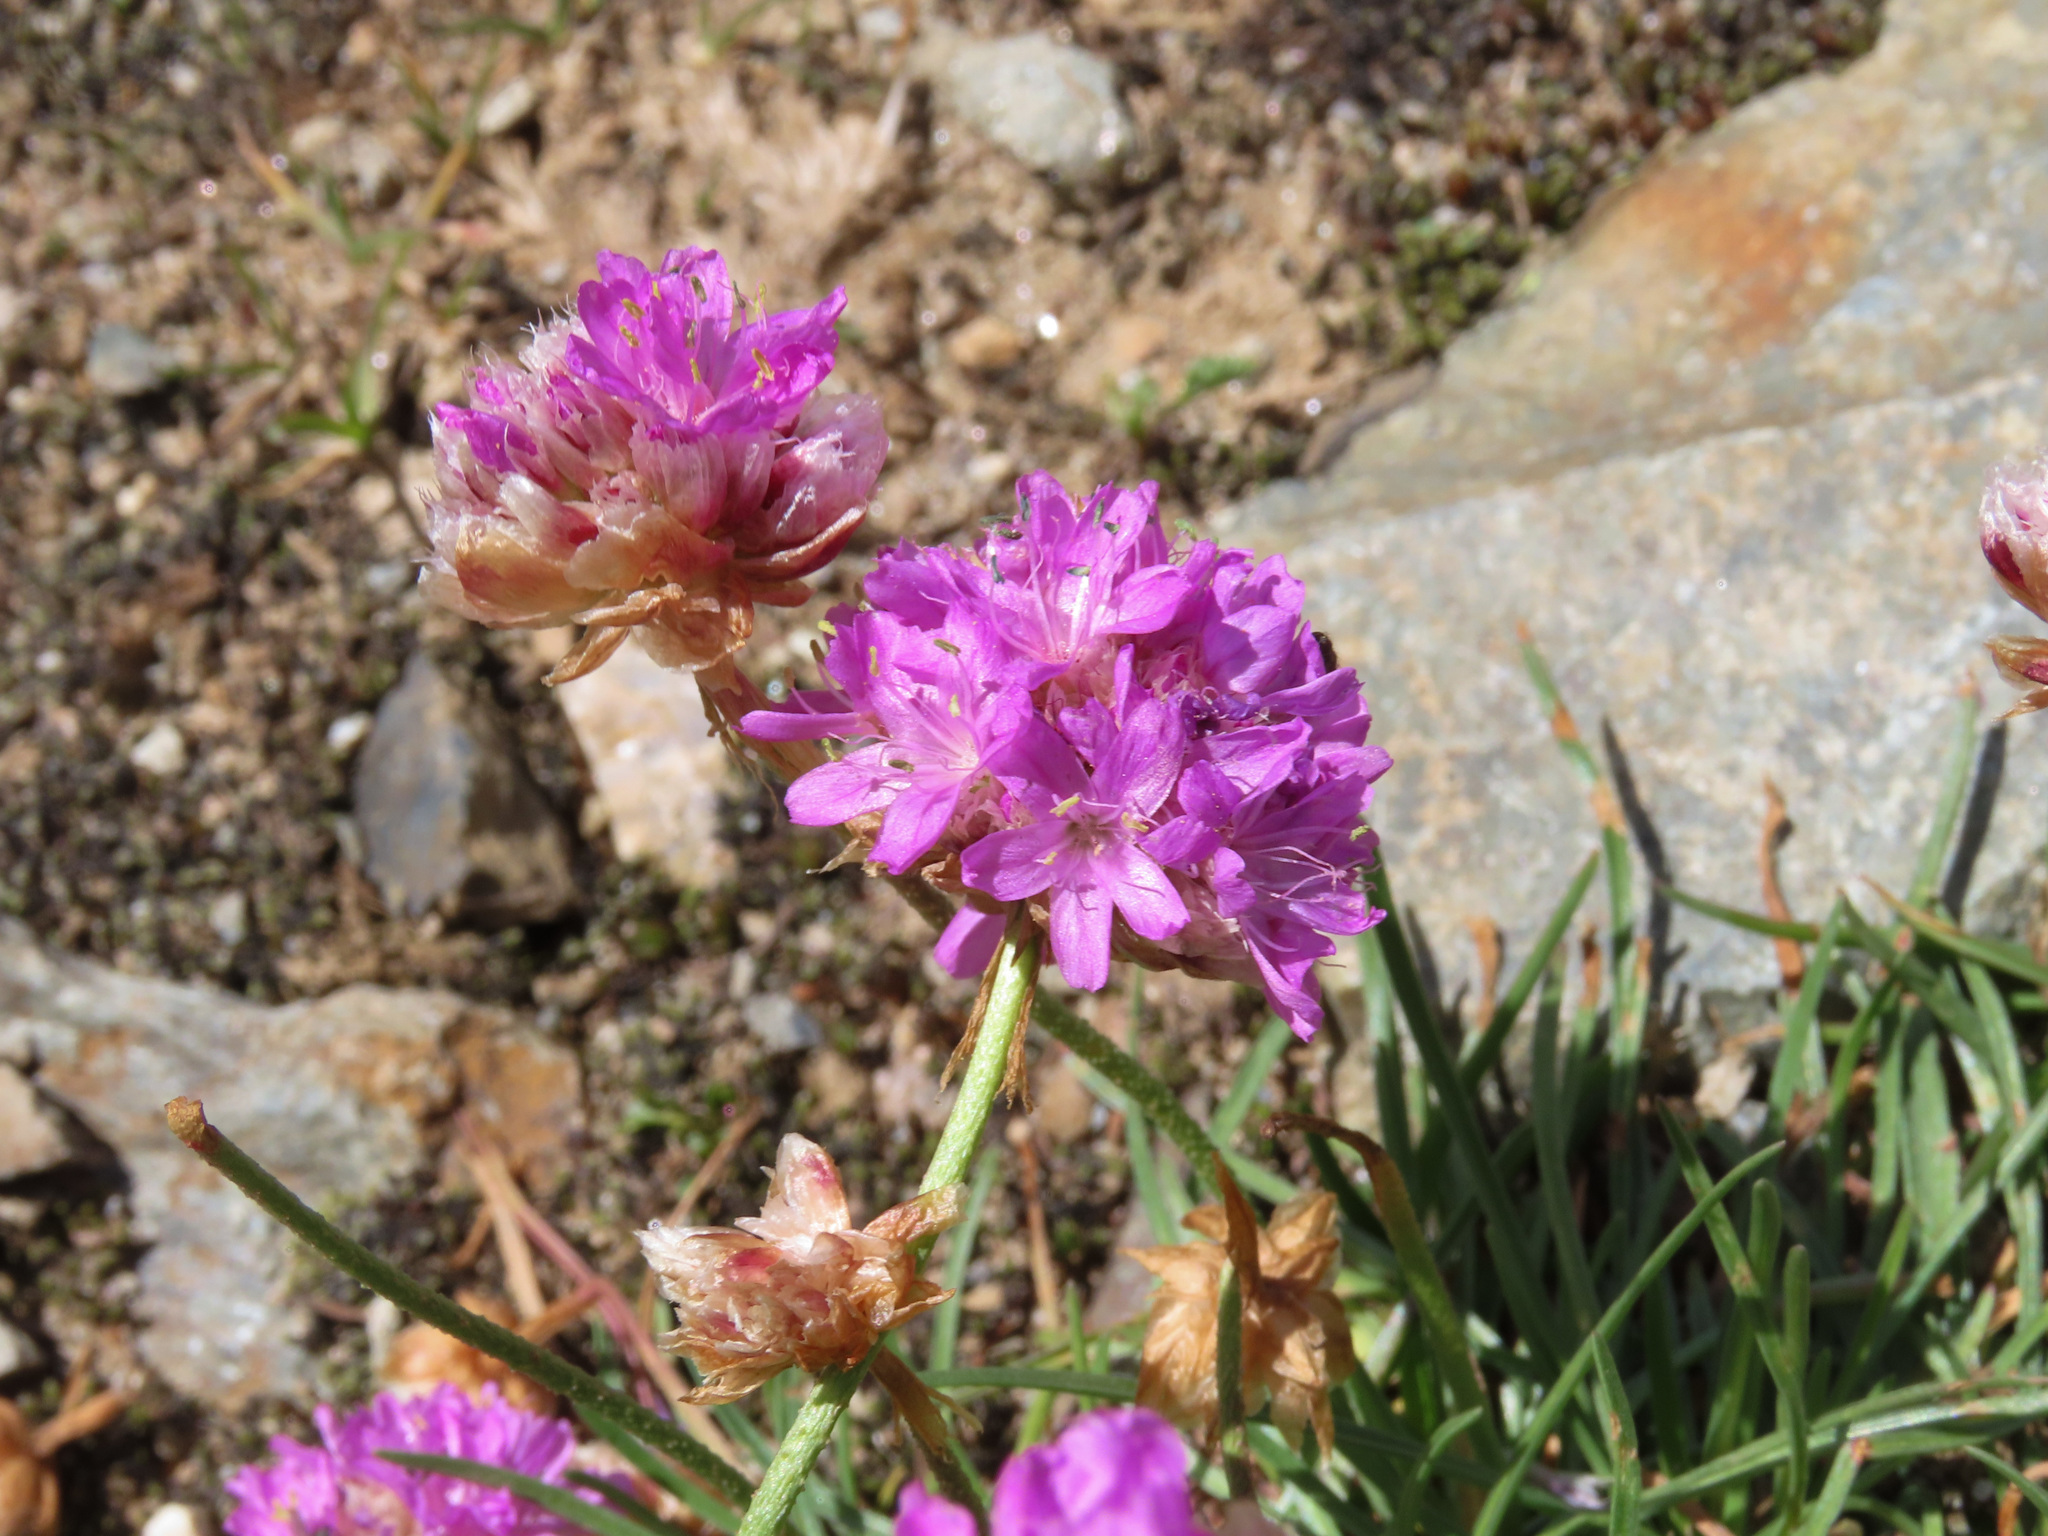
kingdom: Plantae
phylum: Tracheophyta
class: Magnoliopsida
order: Caryophyllales
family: Plumbaginaceae
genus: Armeria
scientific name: Armeria alpina
